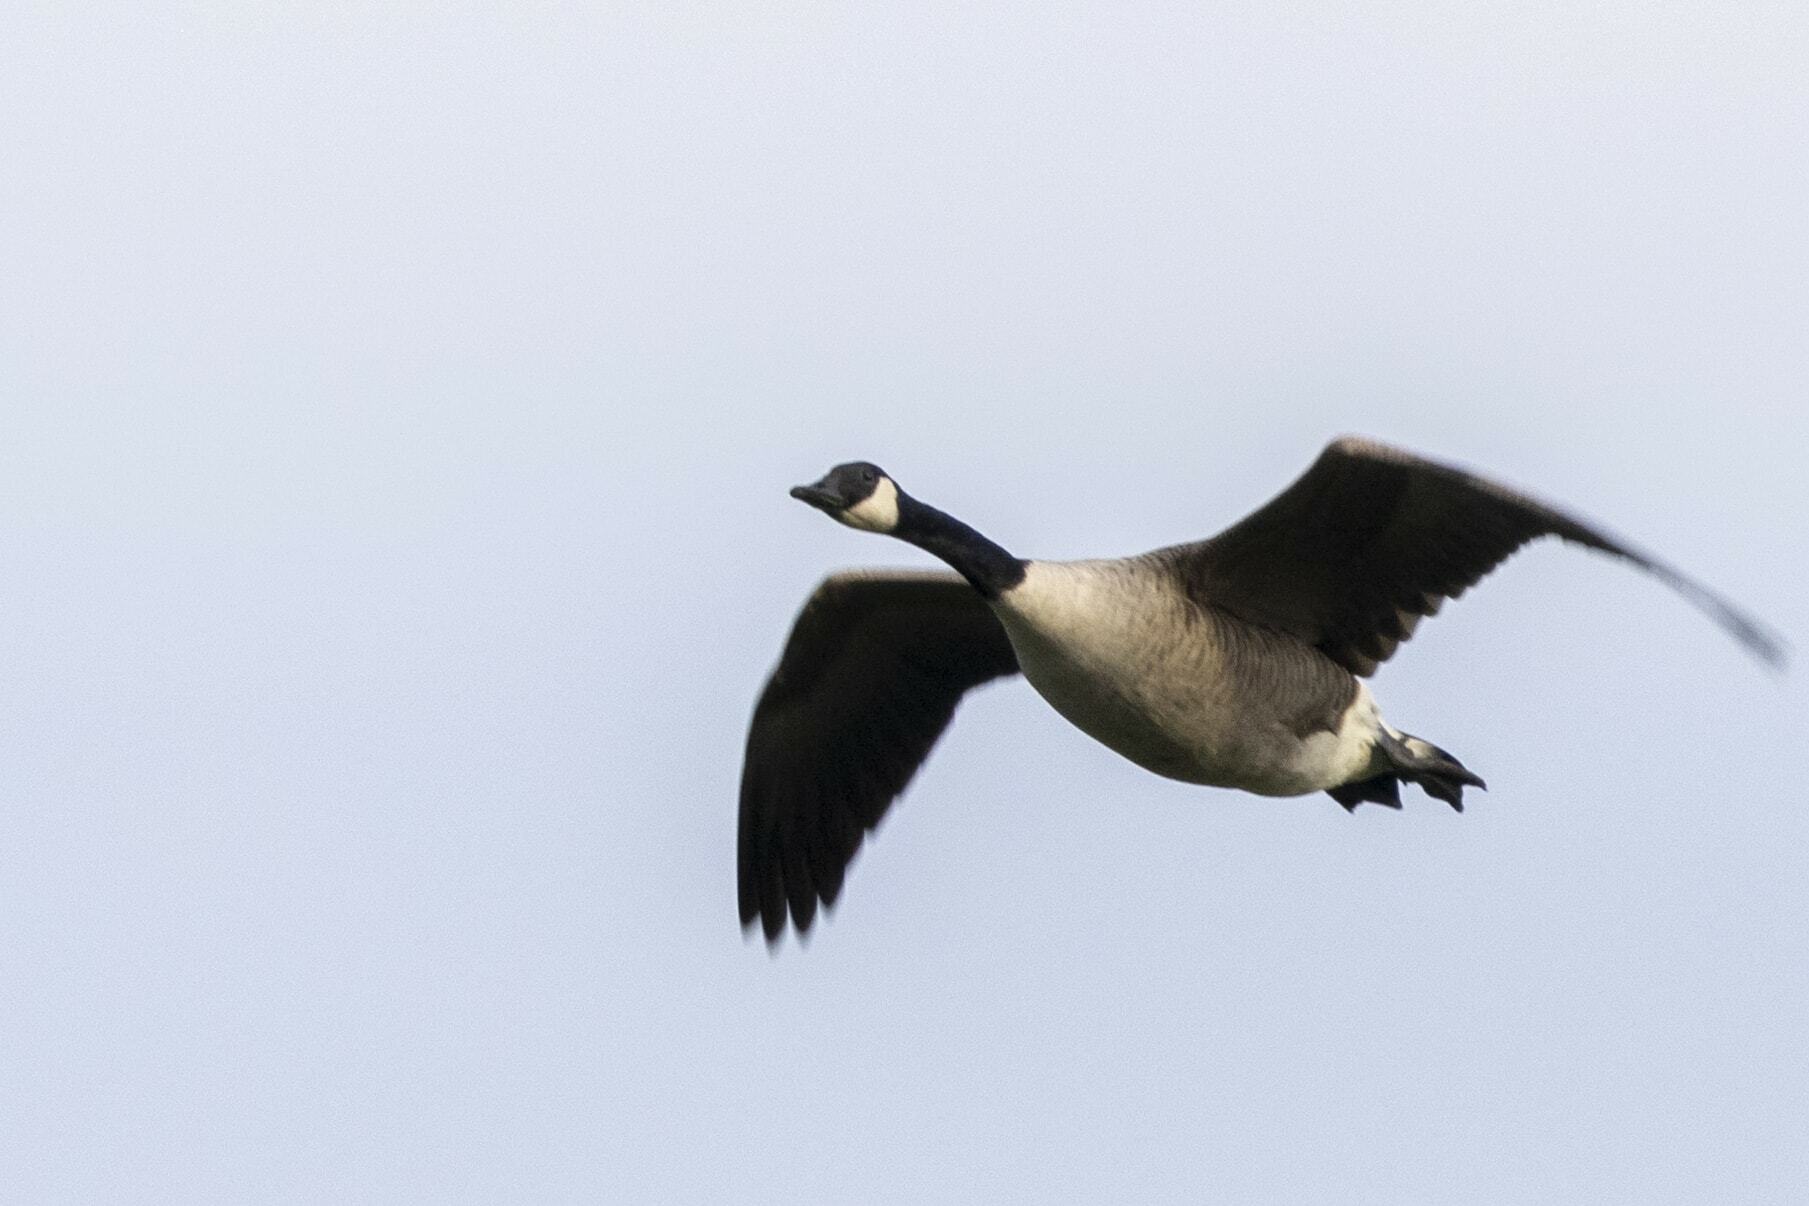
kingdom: Animalia
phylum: Chordata
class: Aves
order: Anseriformes
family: Anatidae
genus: Branta
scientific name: Branta canadensis
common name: Canada goose
